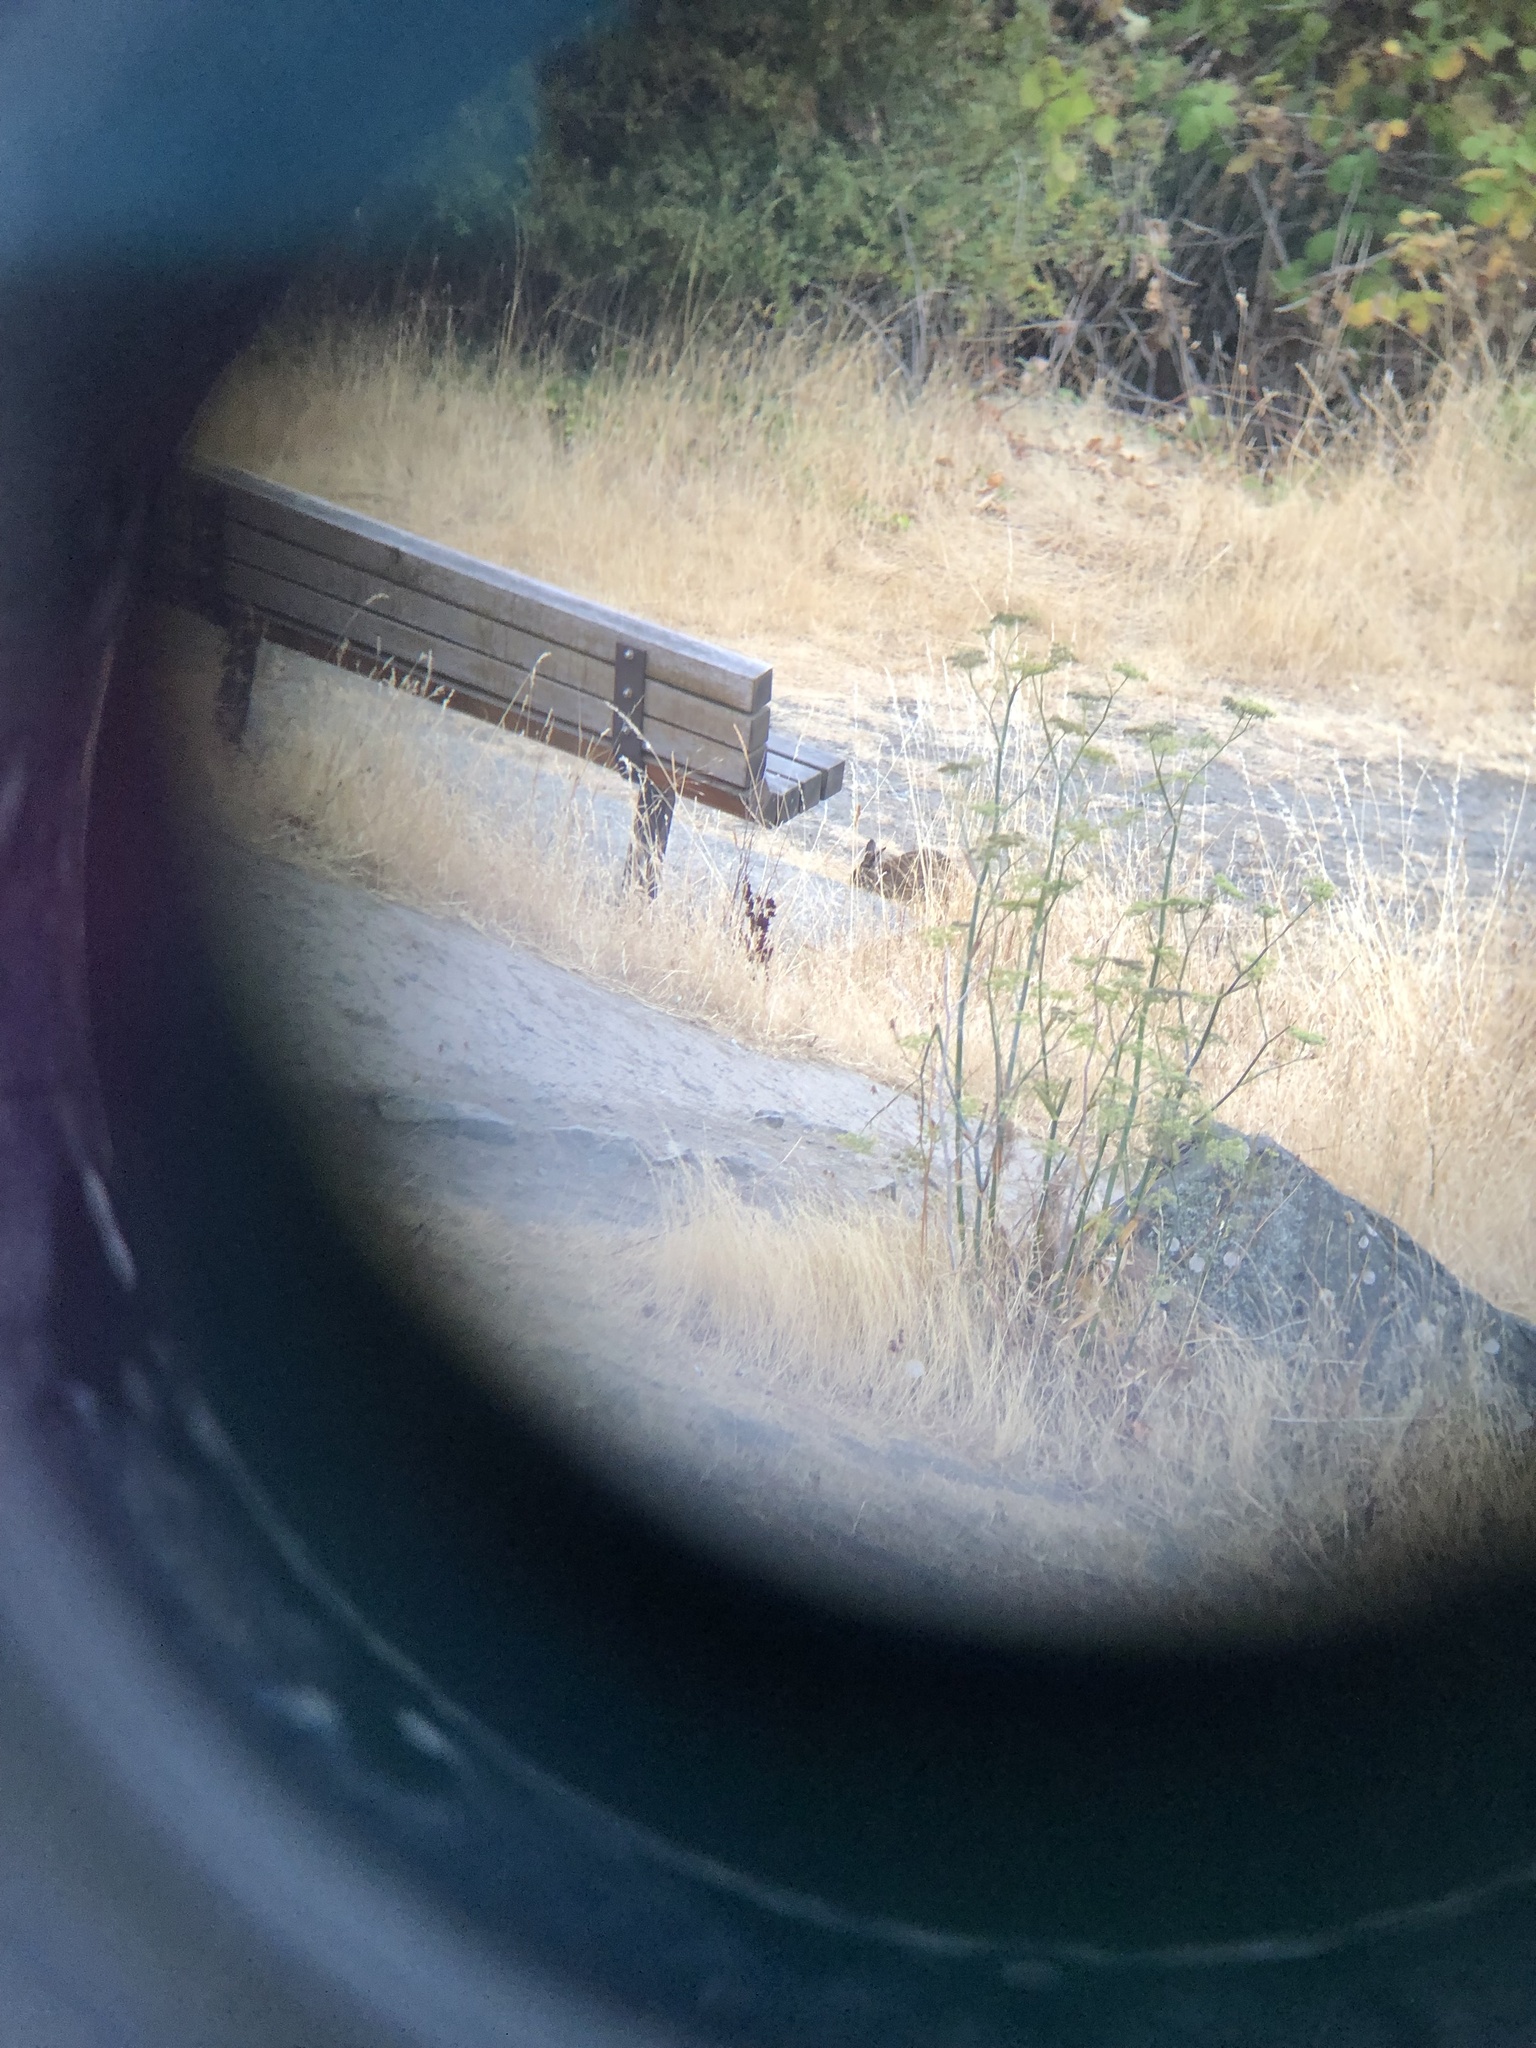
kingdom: Animalia
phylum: Chordata
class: Mammalia
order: Lagomorpha
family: Leporidae
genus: Sylvilagus
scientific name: Sylvilagus floridanus
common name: Eastern cottontail
